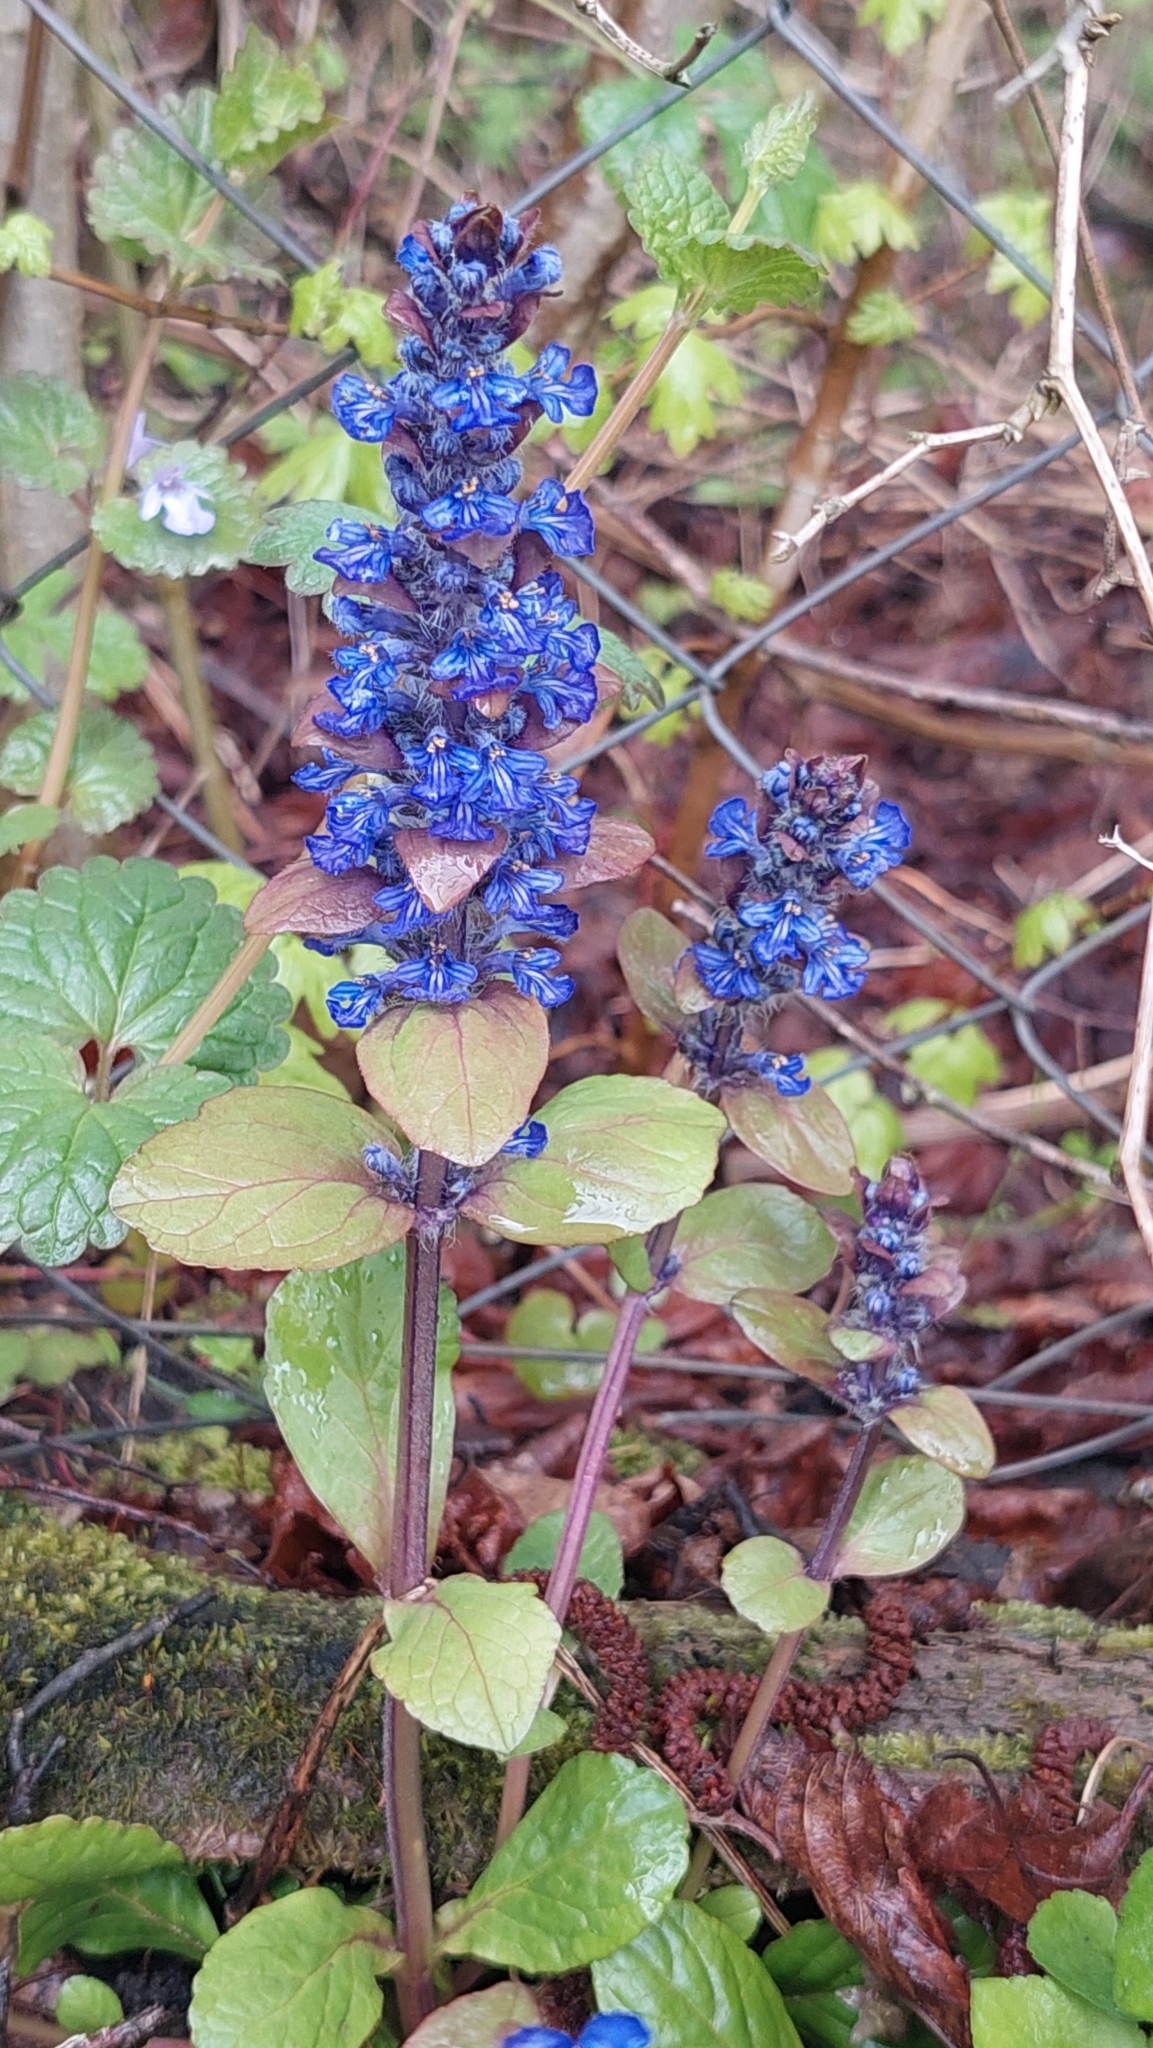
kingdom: Plantae
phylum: Tracheophyta
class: Magnoliopsida
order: Lamiales
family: Lamiaceae
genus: Ajuga
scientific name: Ajuga reptans
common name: Bugle
